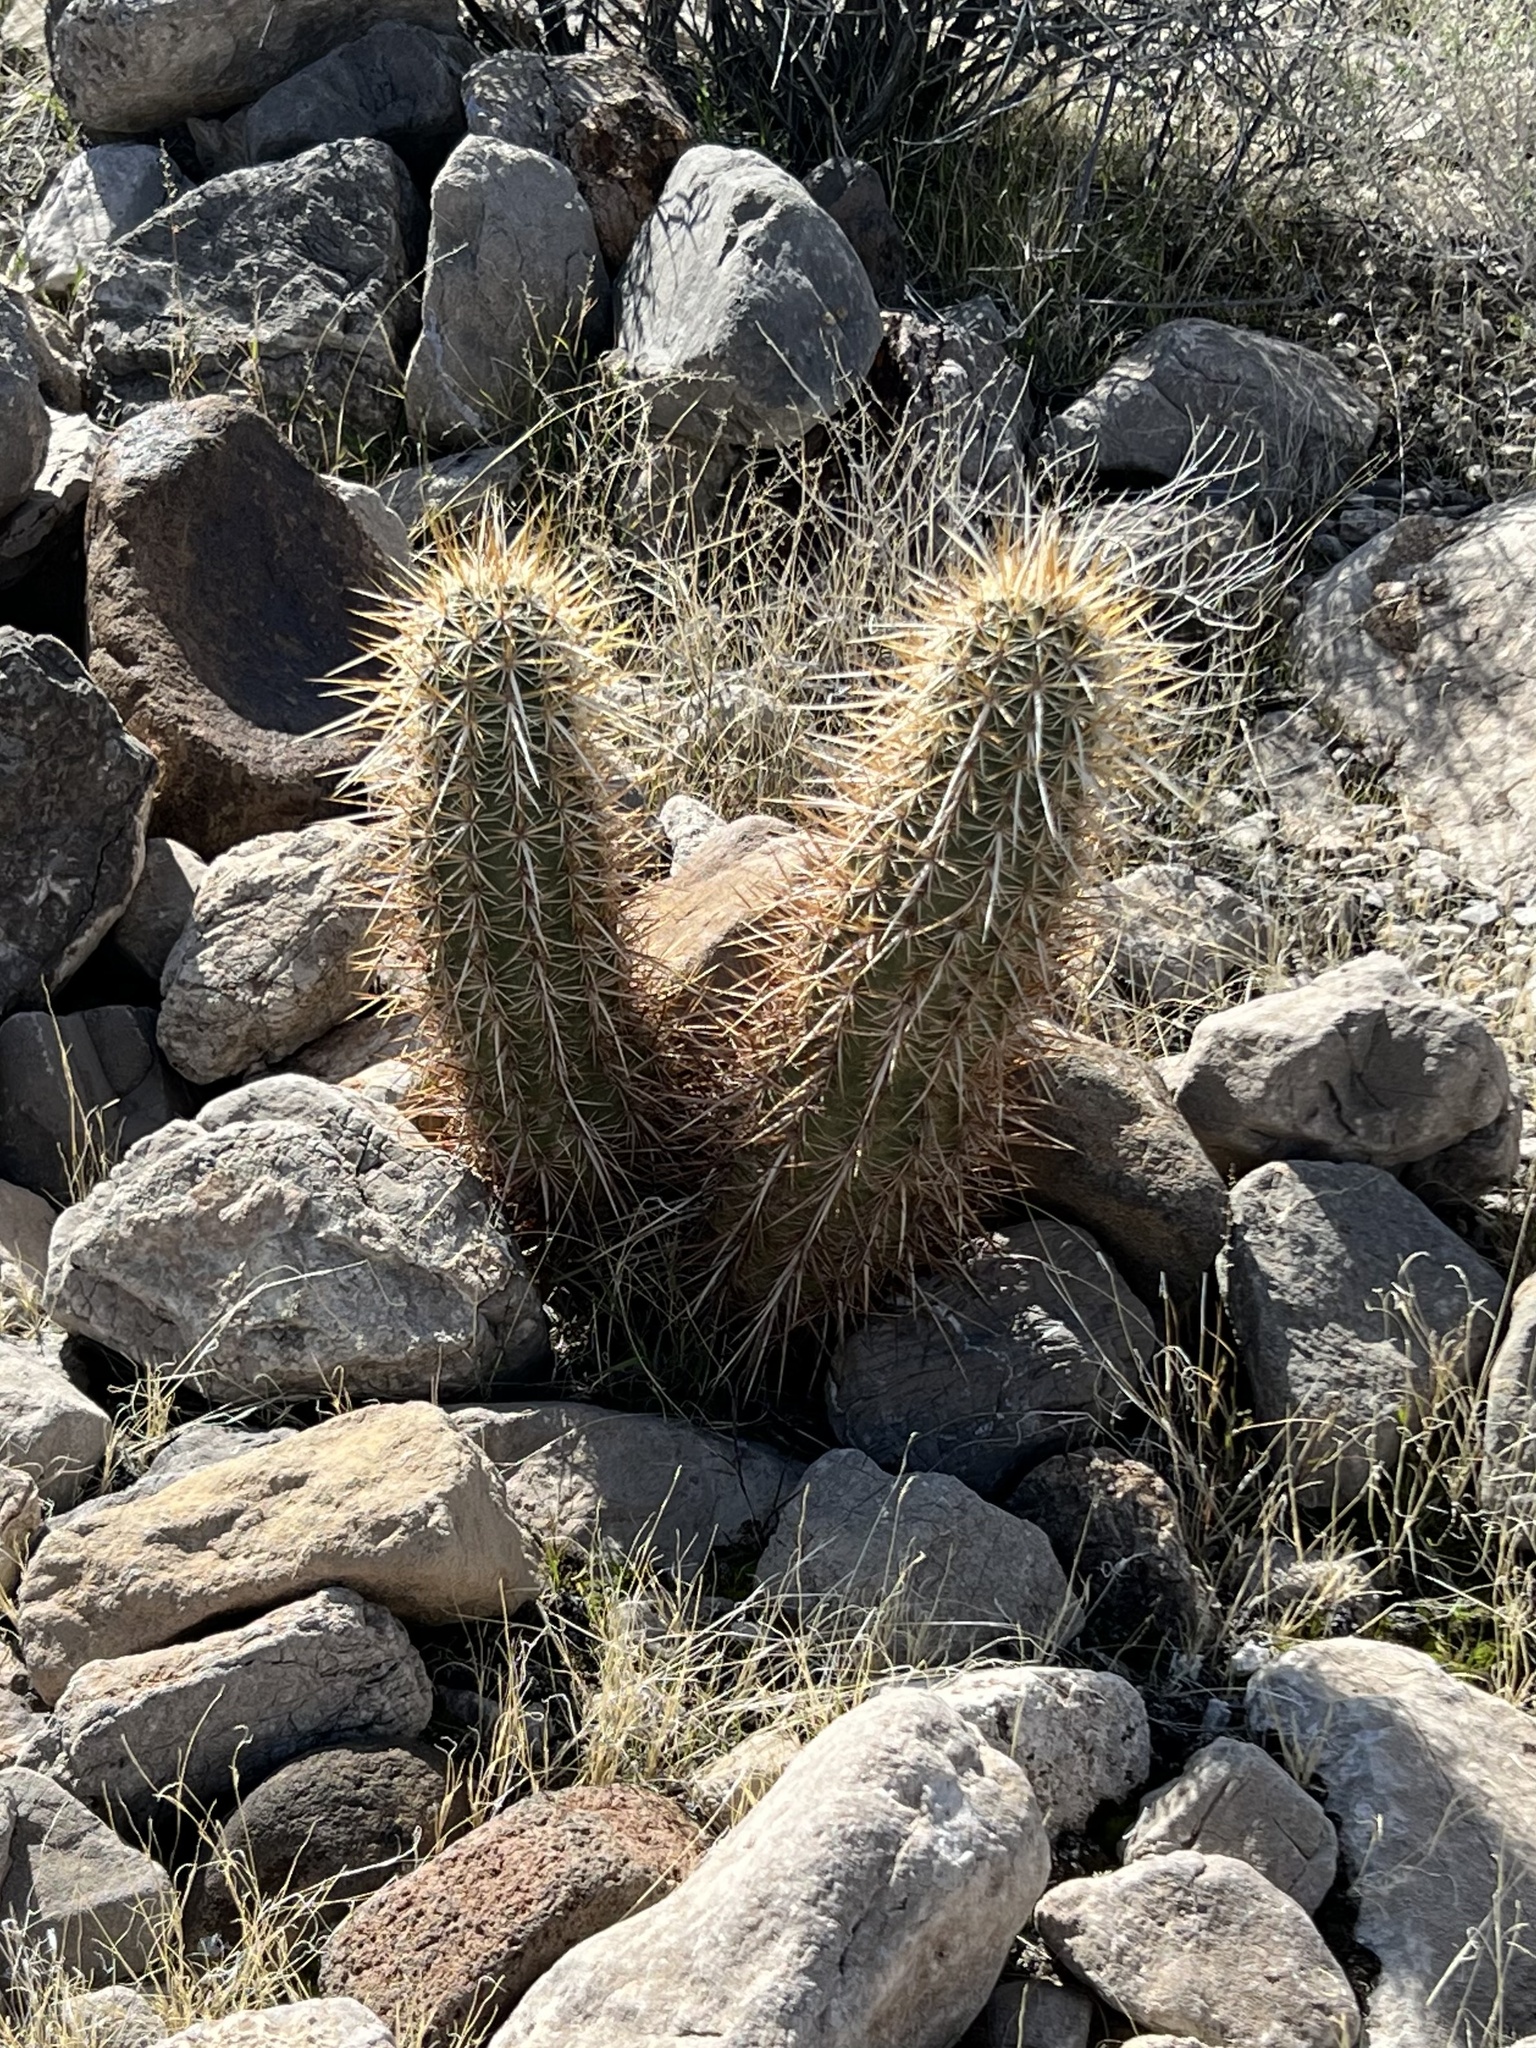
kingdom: Plantae
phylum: Tracheophyta
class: Magnoliopsida
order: Caryophyllales
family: Cactaceae
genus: Echinocereus
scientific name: Echinocereus engelmannii
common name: Engelmann's hedgehog cactus
